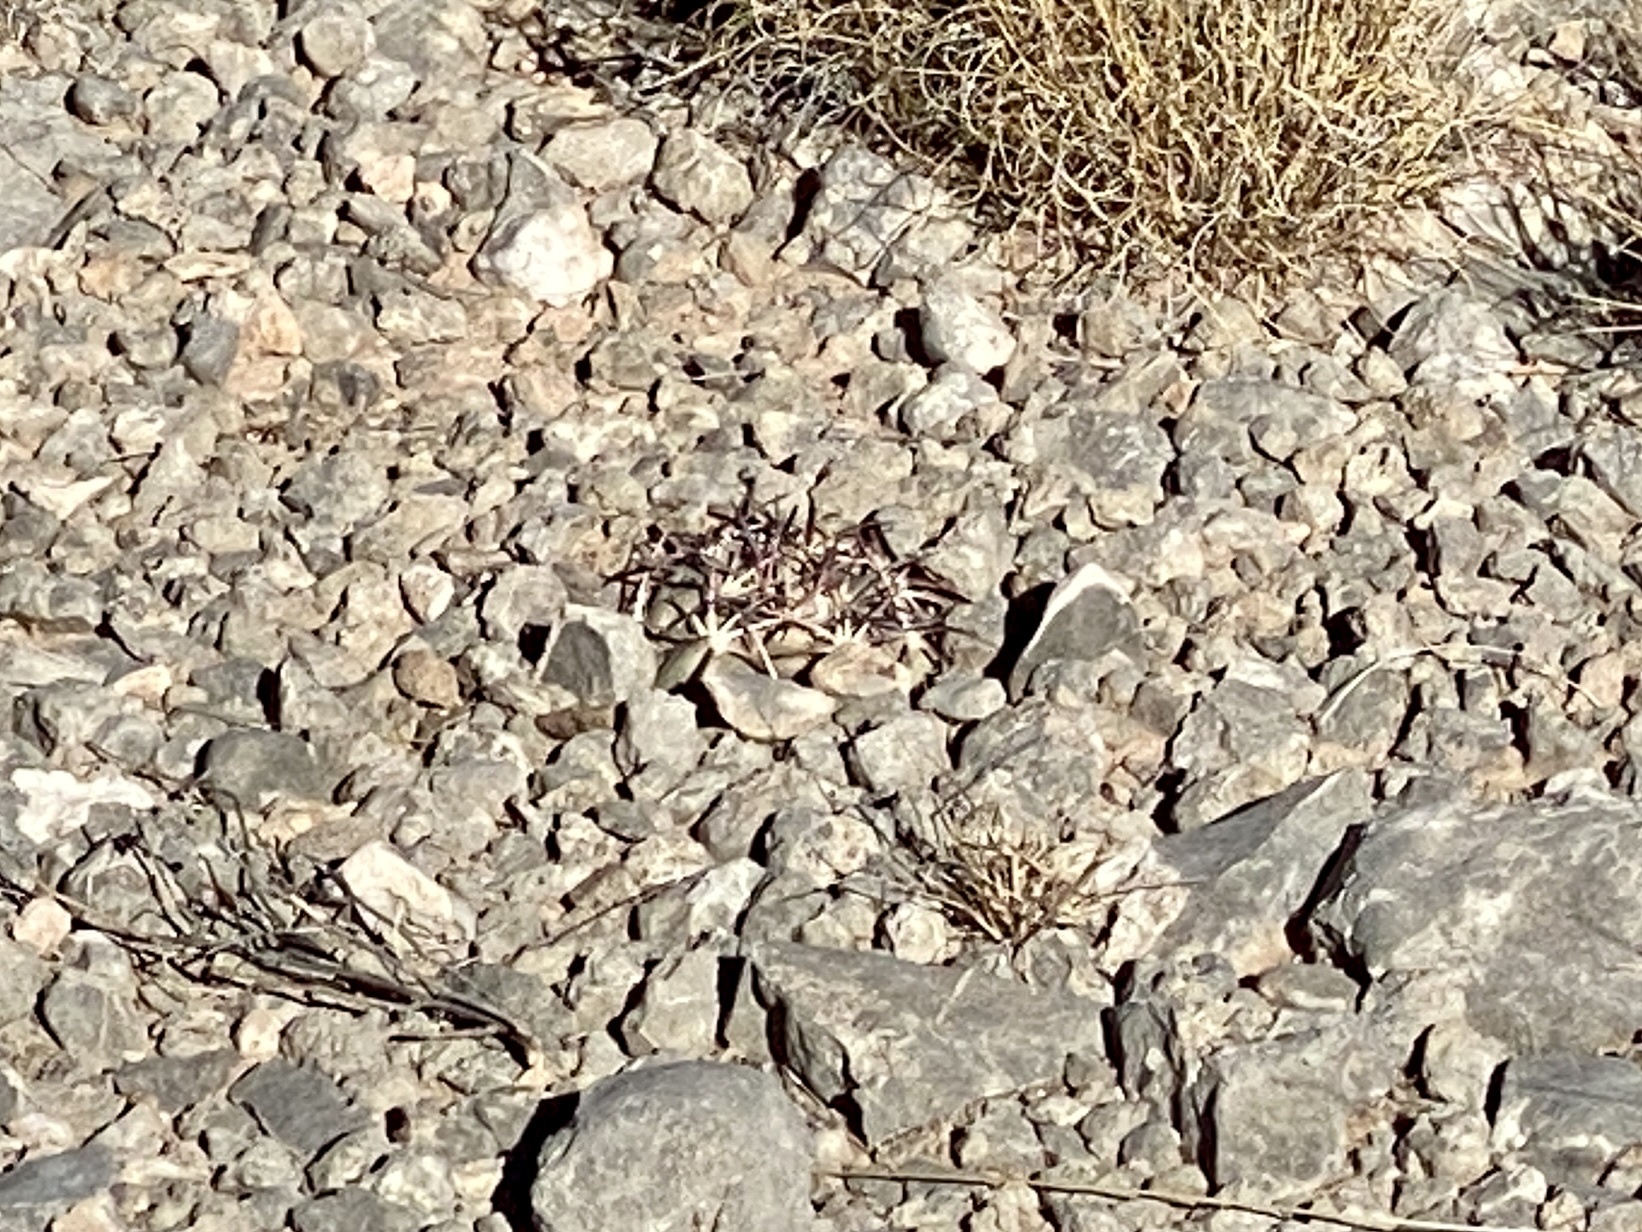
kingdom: Plantae
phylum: Tracheophyta
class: Magnoliopsida
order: Caryophyllales
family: Cactaceae
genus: Echinocactus
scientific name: Echinocactus horizonthalonius
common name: Devilshead
